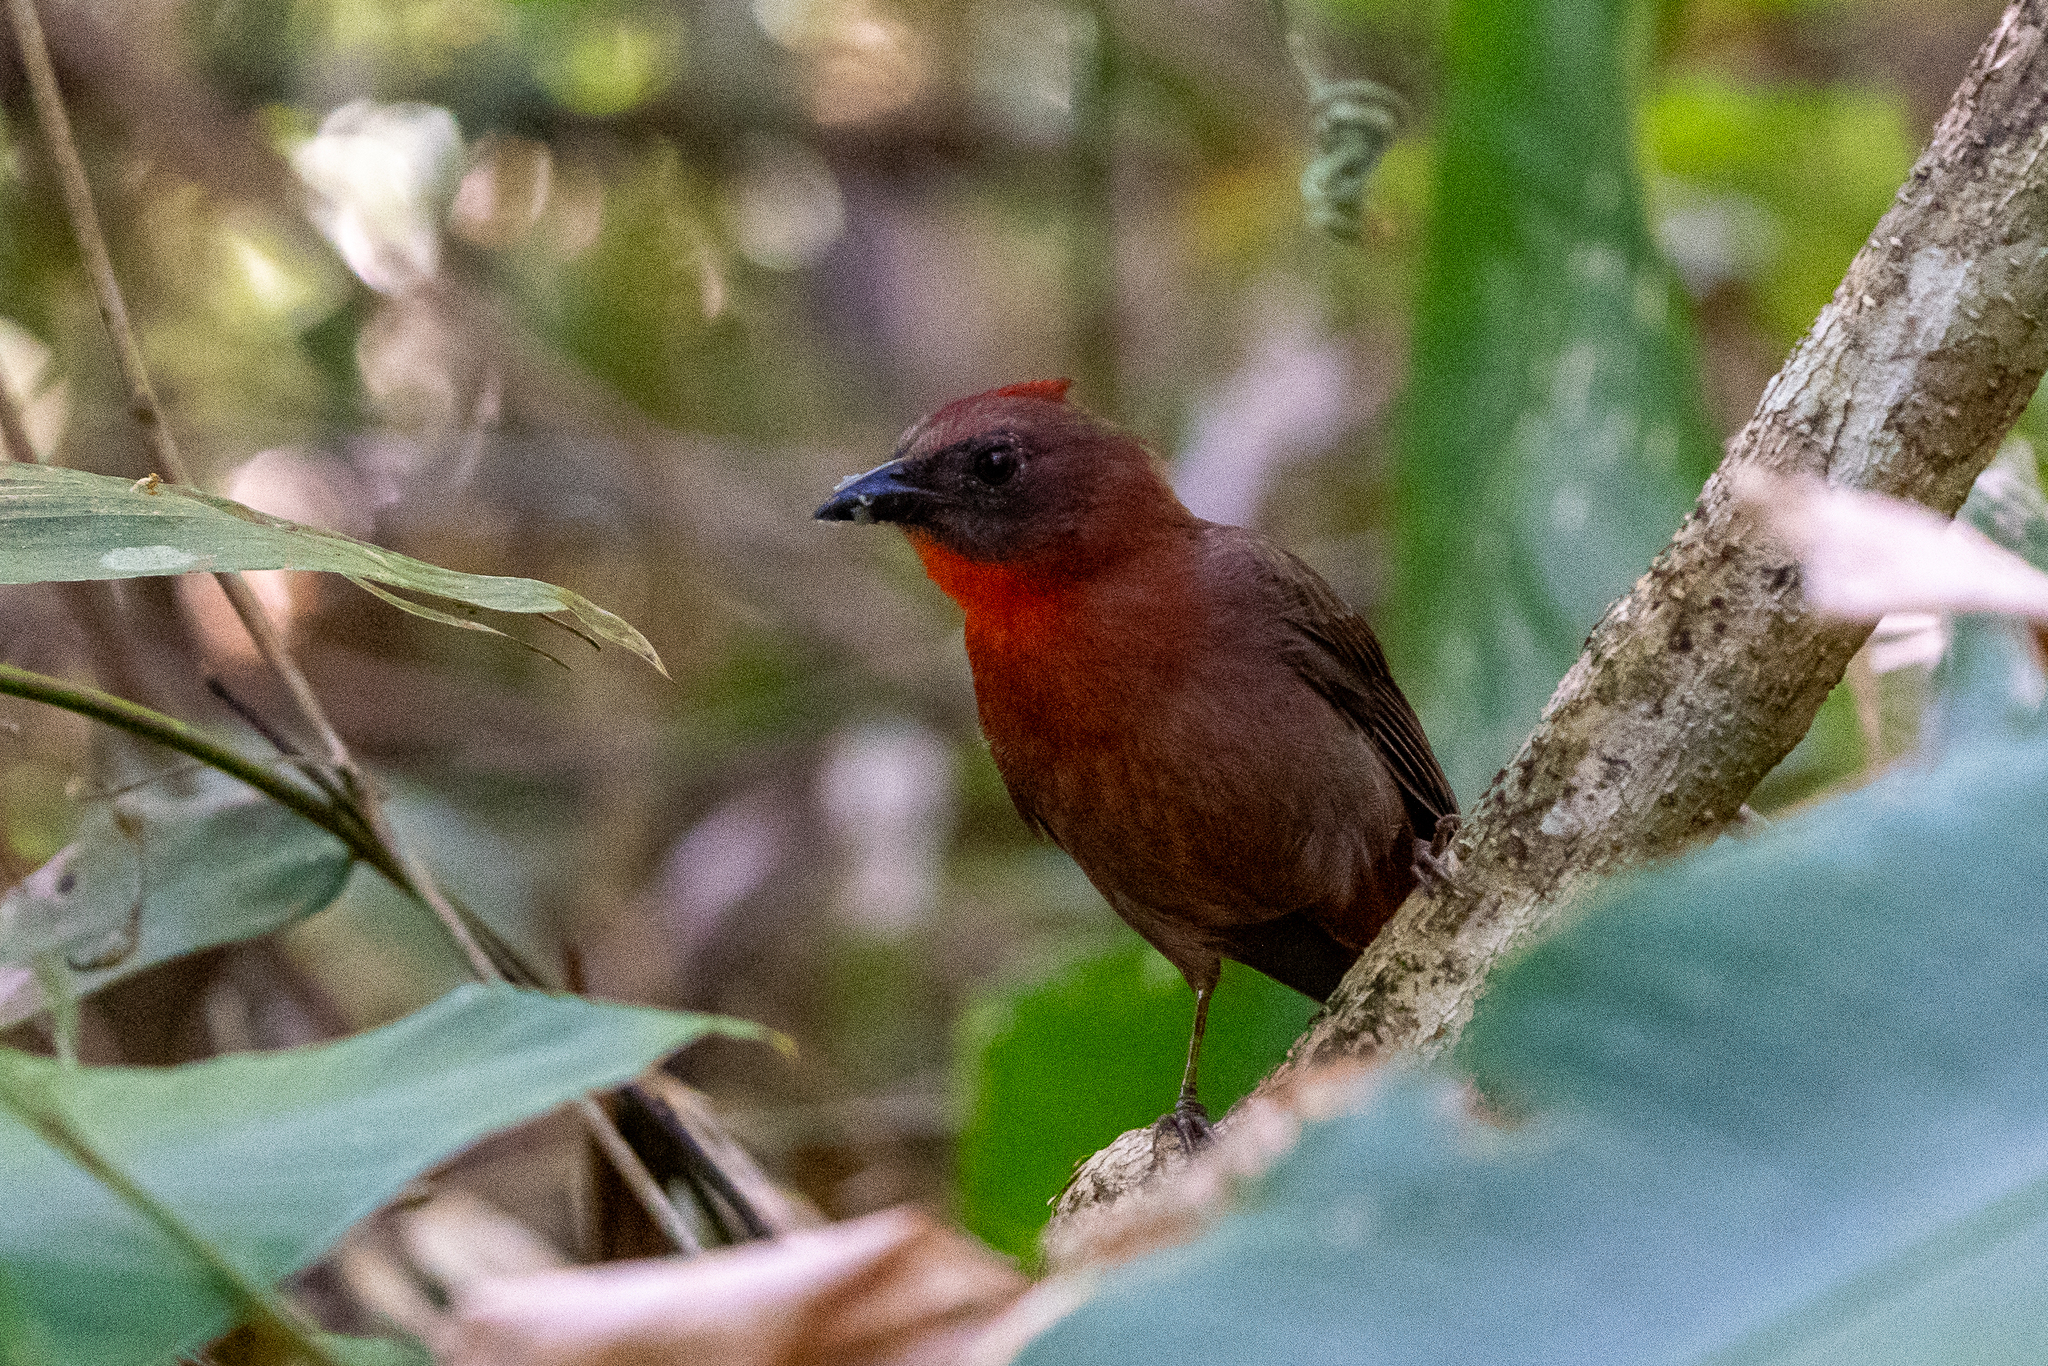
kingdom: Animalia
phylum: Chordata
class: Aves
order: Passeriformes
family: Cardinalidae
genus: Habia
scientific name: Habia fuscicauda
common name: Red-throated ant-tanager
